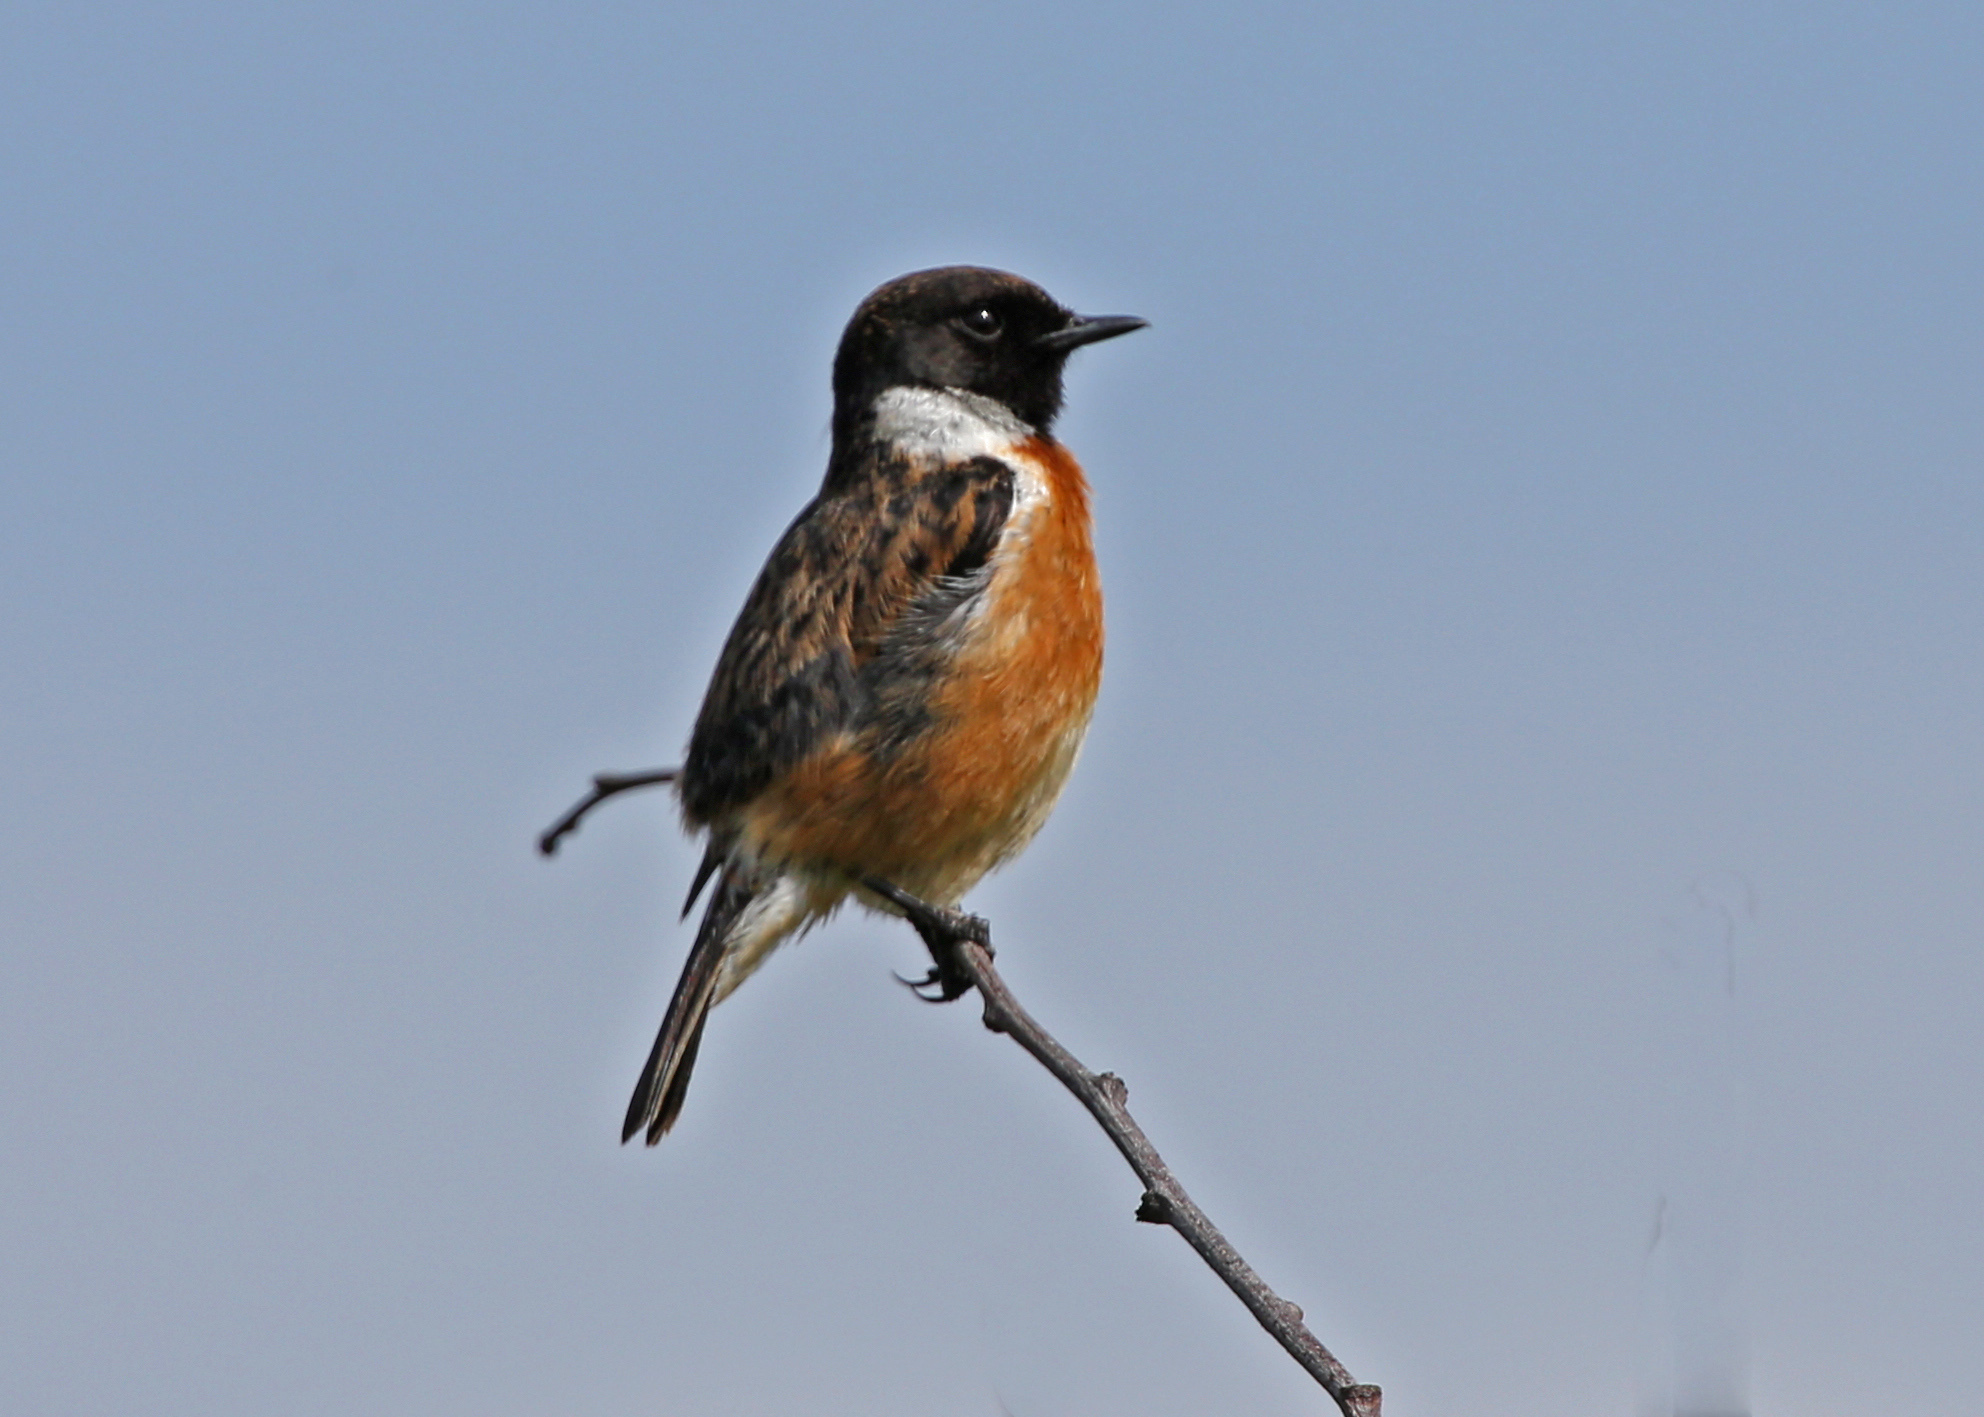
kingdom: Animalia
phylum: Chordata
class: Aves
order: Passeriformes
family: Muscicapidae
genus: Saxicola
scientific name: Saxicola rubicola
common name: European stonechat
